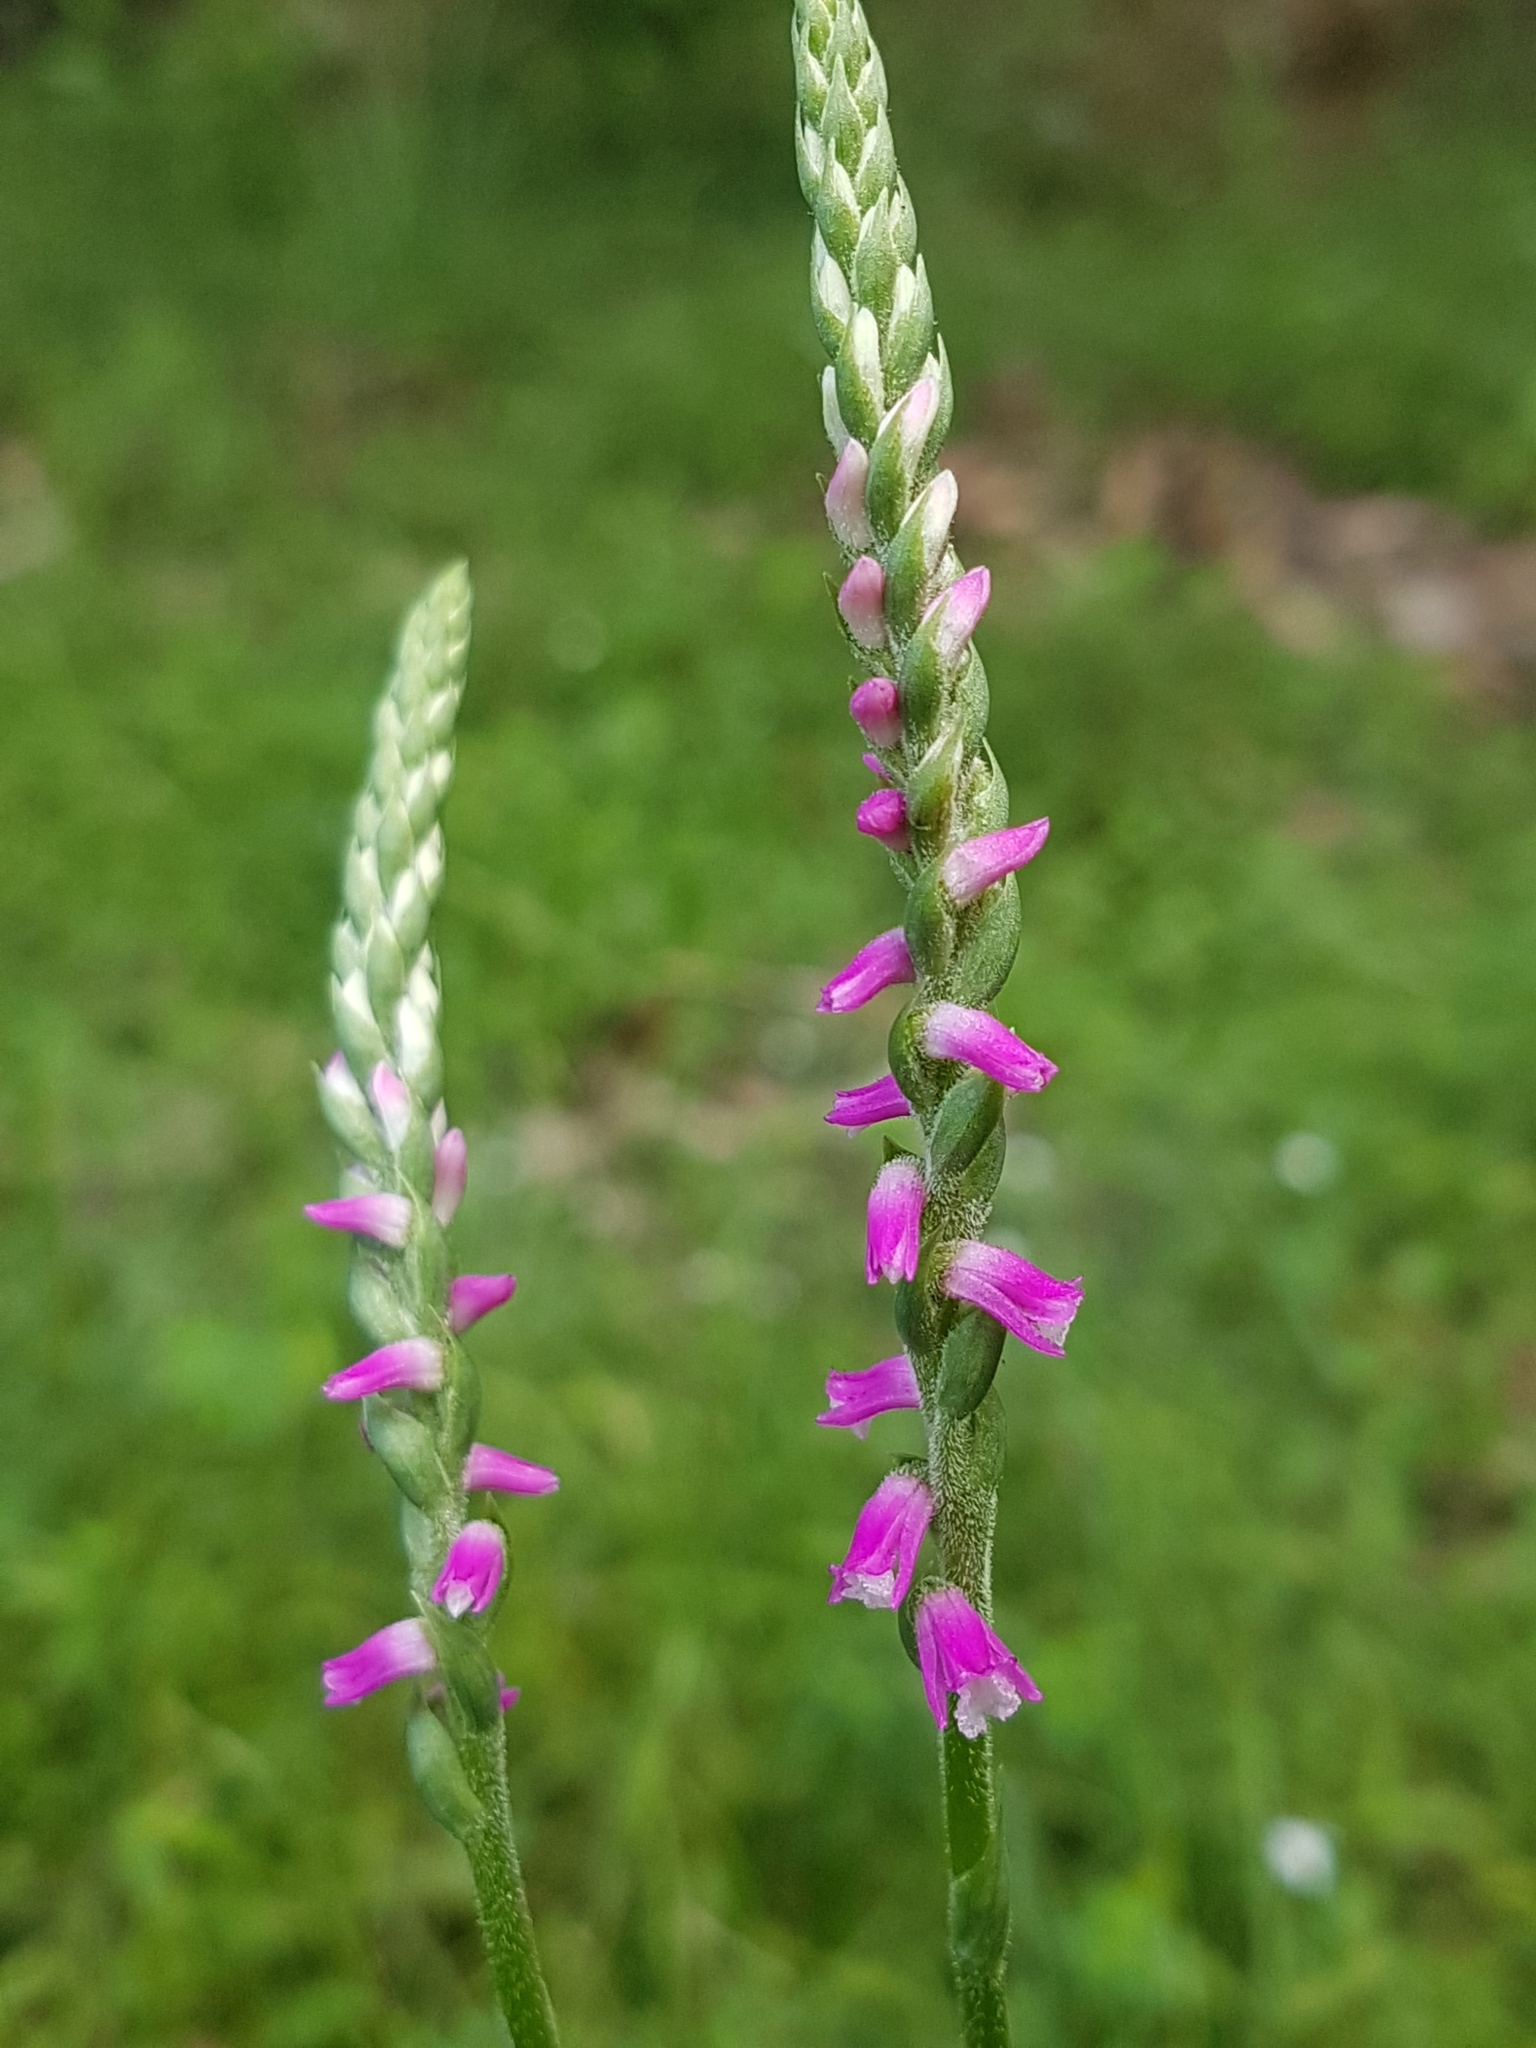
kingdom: Plantae
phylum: Tracheophyta
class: Liliopsida
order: Asparagales
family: Orchidaceae
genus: Spiranthes
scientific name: Spiranthes australis
